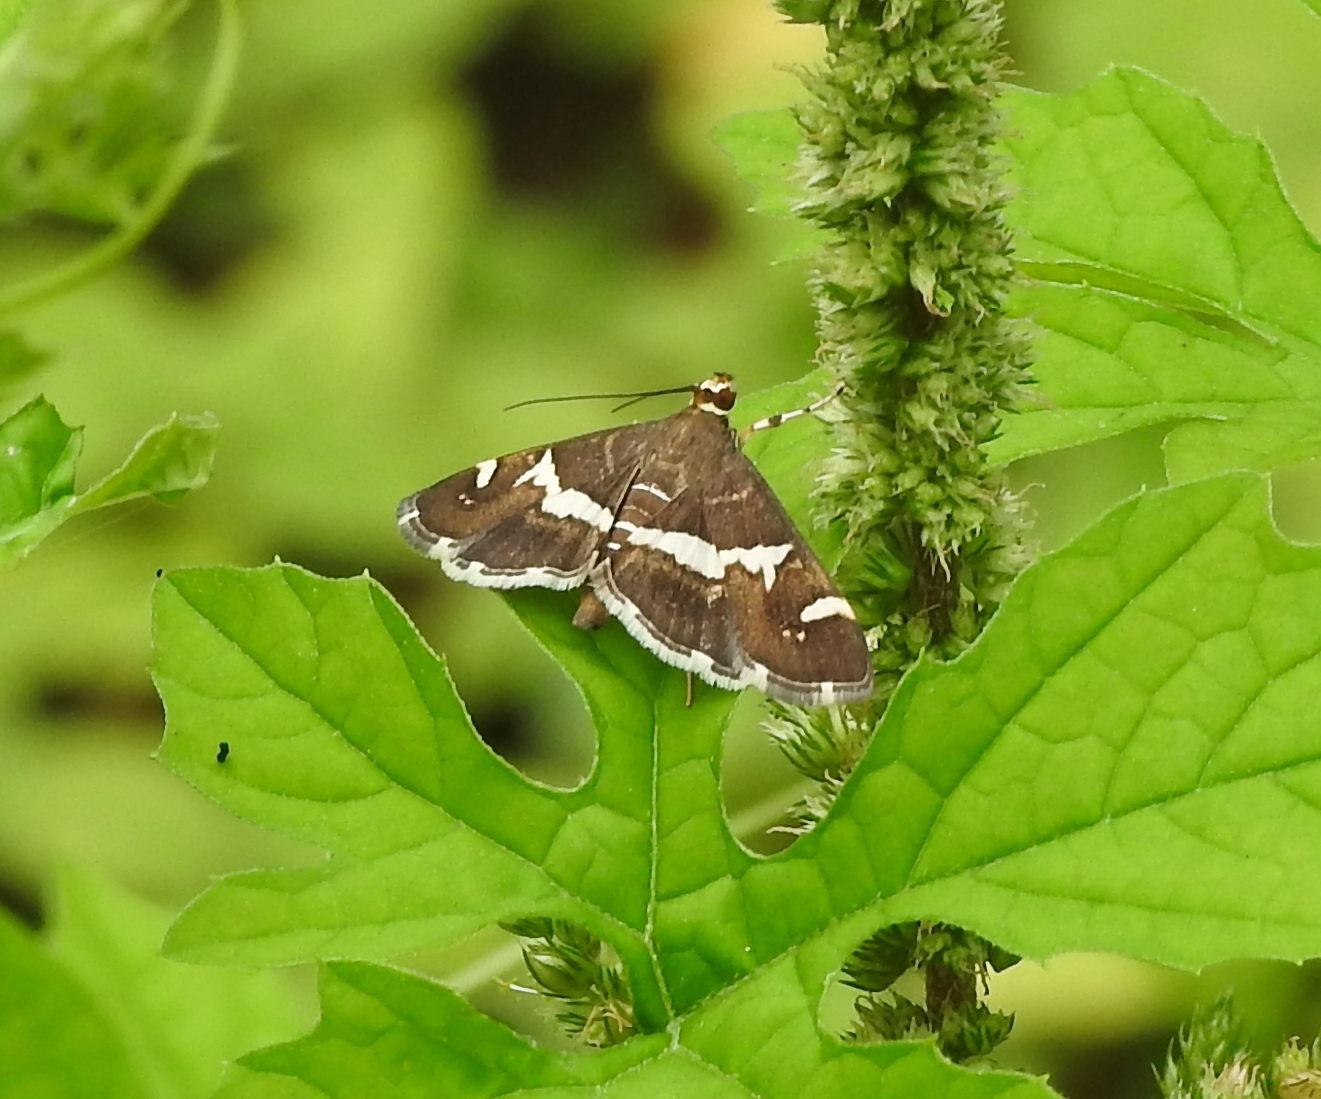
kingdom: Animalia
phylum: Arthropoda
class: Insecta
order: Lepidoptera
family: Crambidae
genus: Spoladea
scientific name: Spoladea recurvalis
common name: Beet webworm moth
